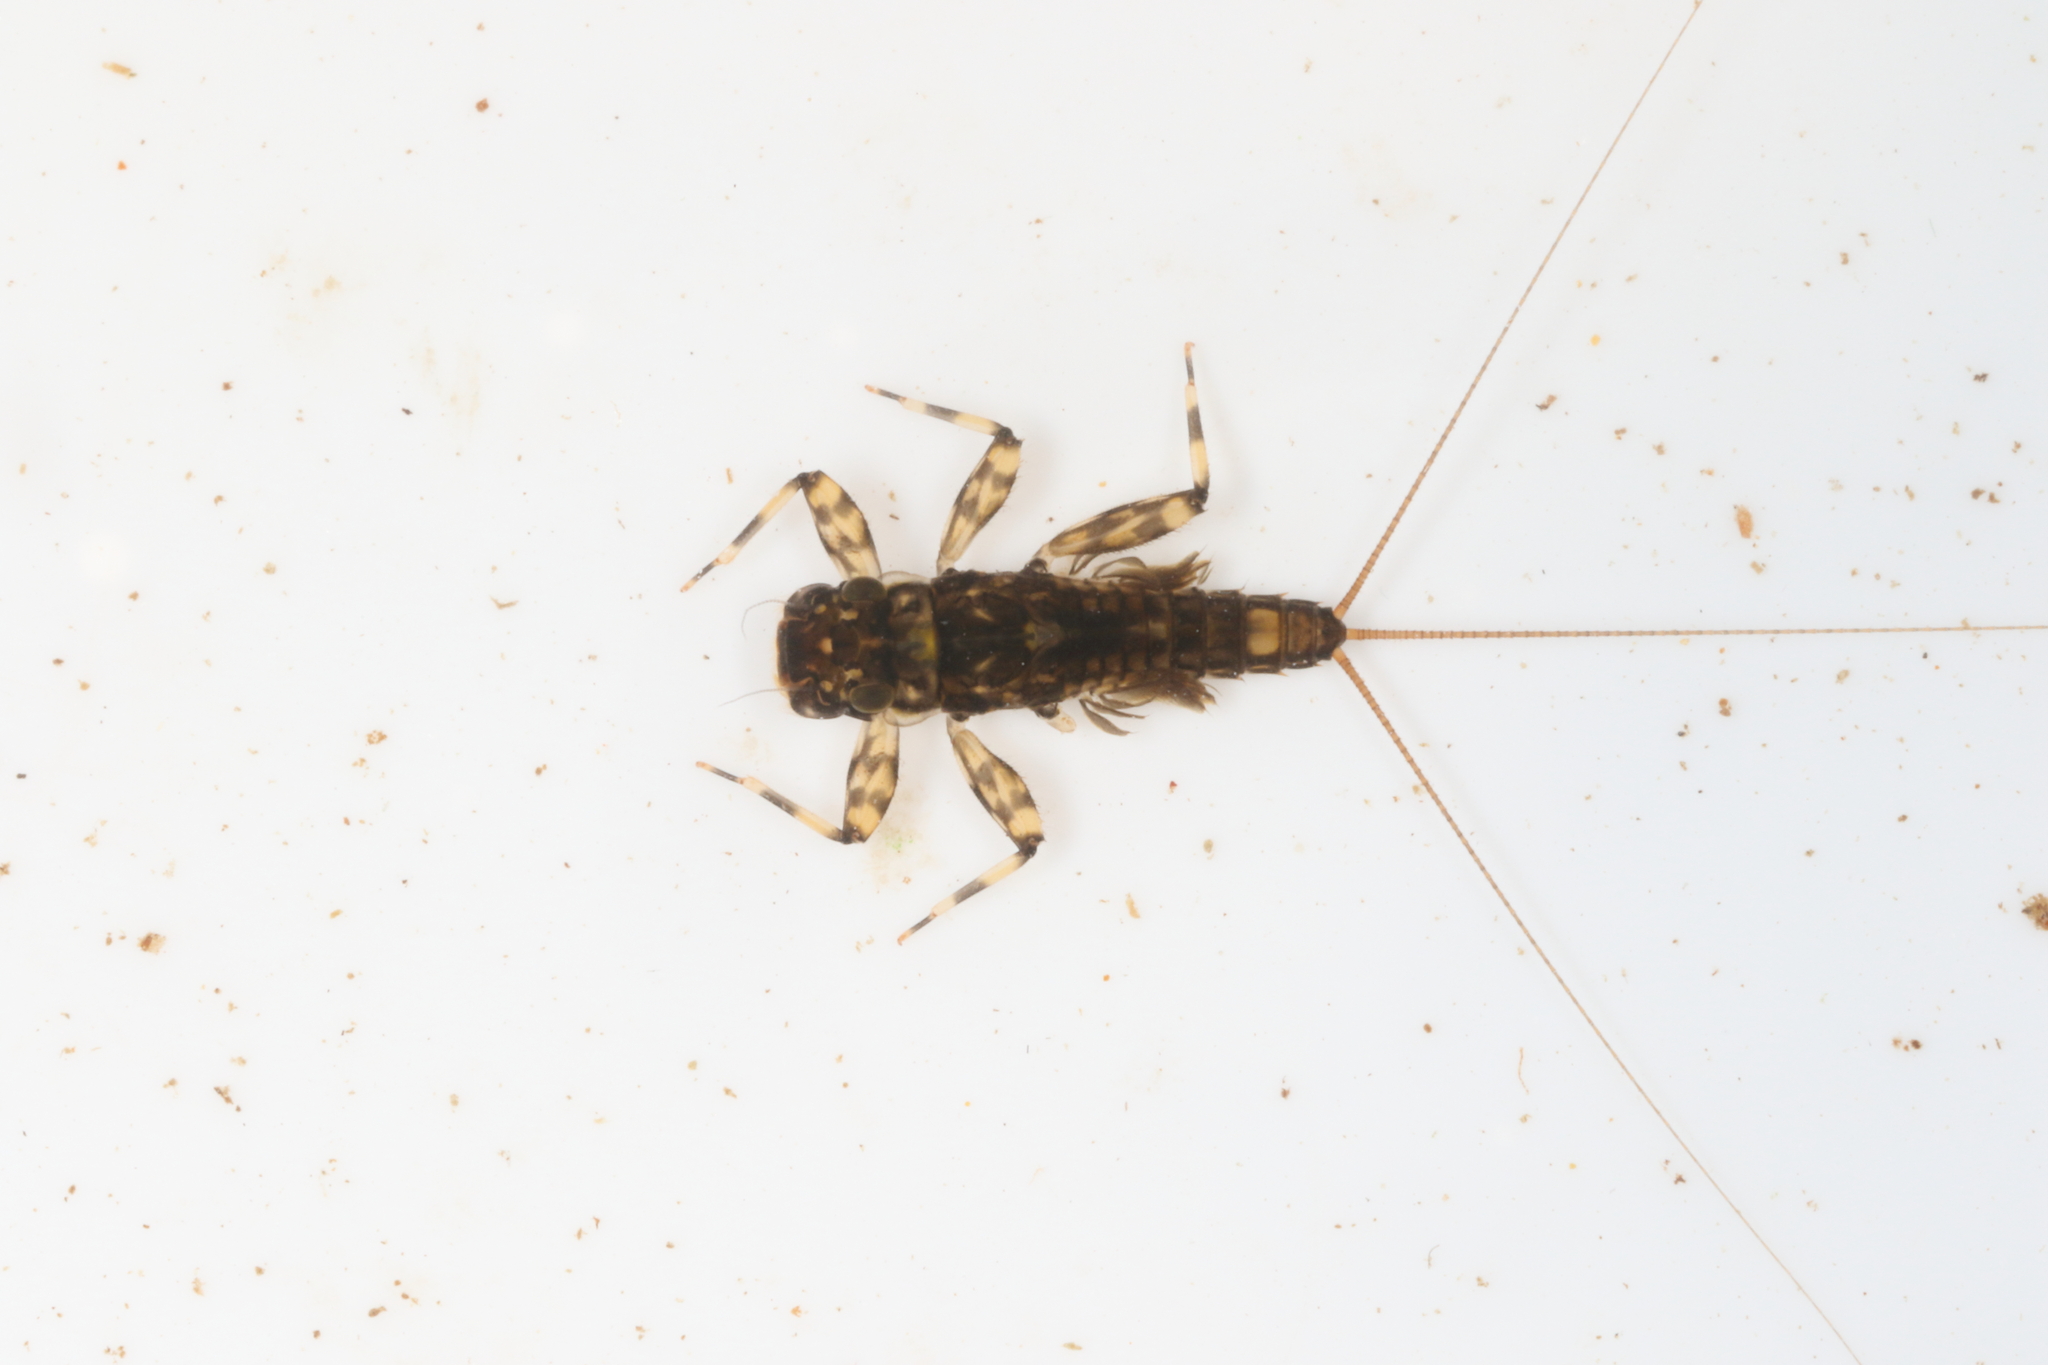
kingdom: Animalia
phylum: Arthropoda
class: Insecta
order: Ephemeroptera
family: Leptophlebiidae
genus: Zephlebia
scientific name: Zephlebia spectabilis
